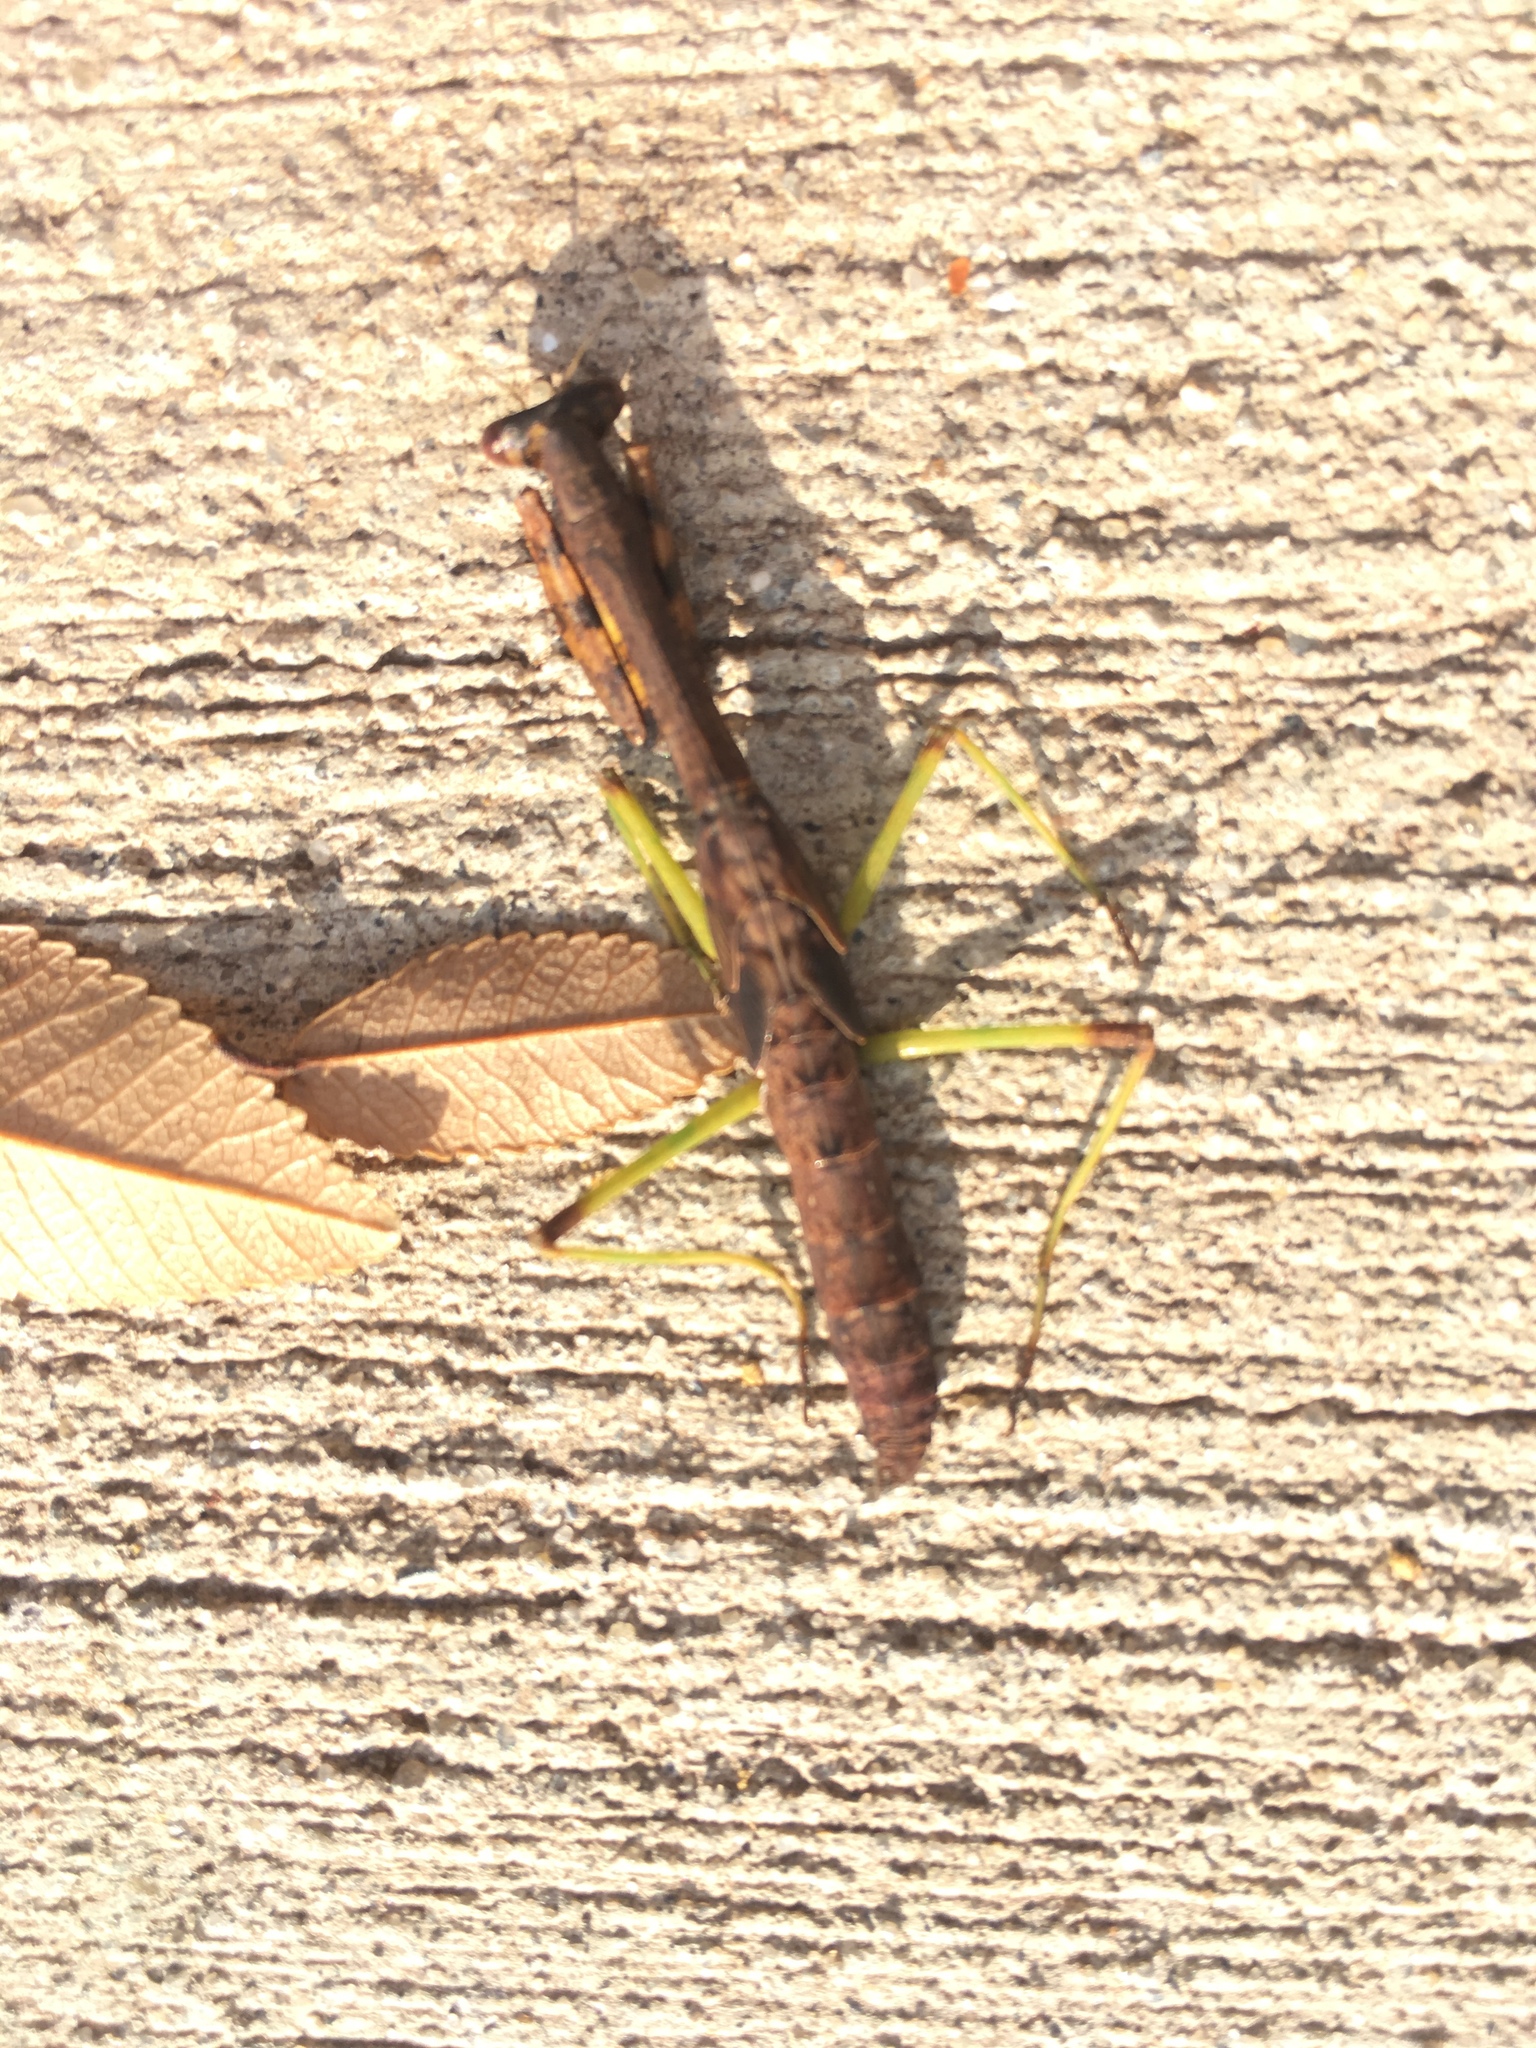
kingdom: Animalia
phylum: Arthropoda
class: Insecta
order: Mantodea
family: Mantidae
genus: Stagmomantis
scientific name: Stagmomantis carolina
